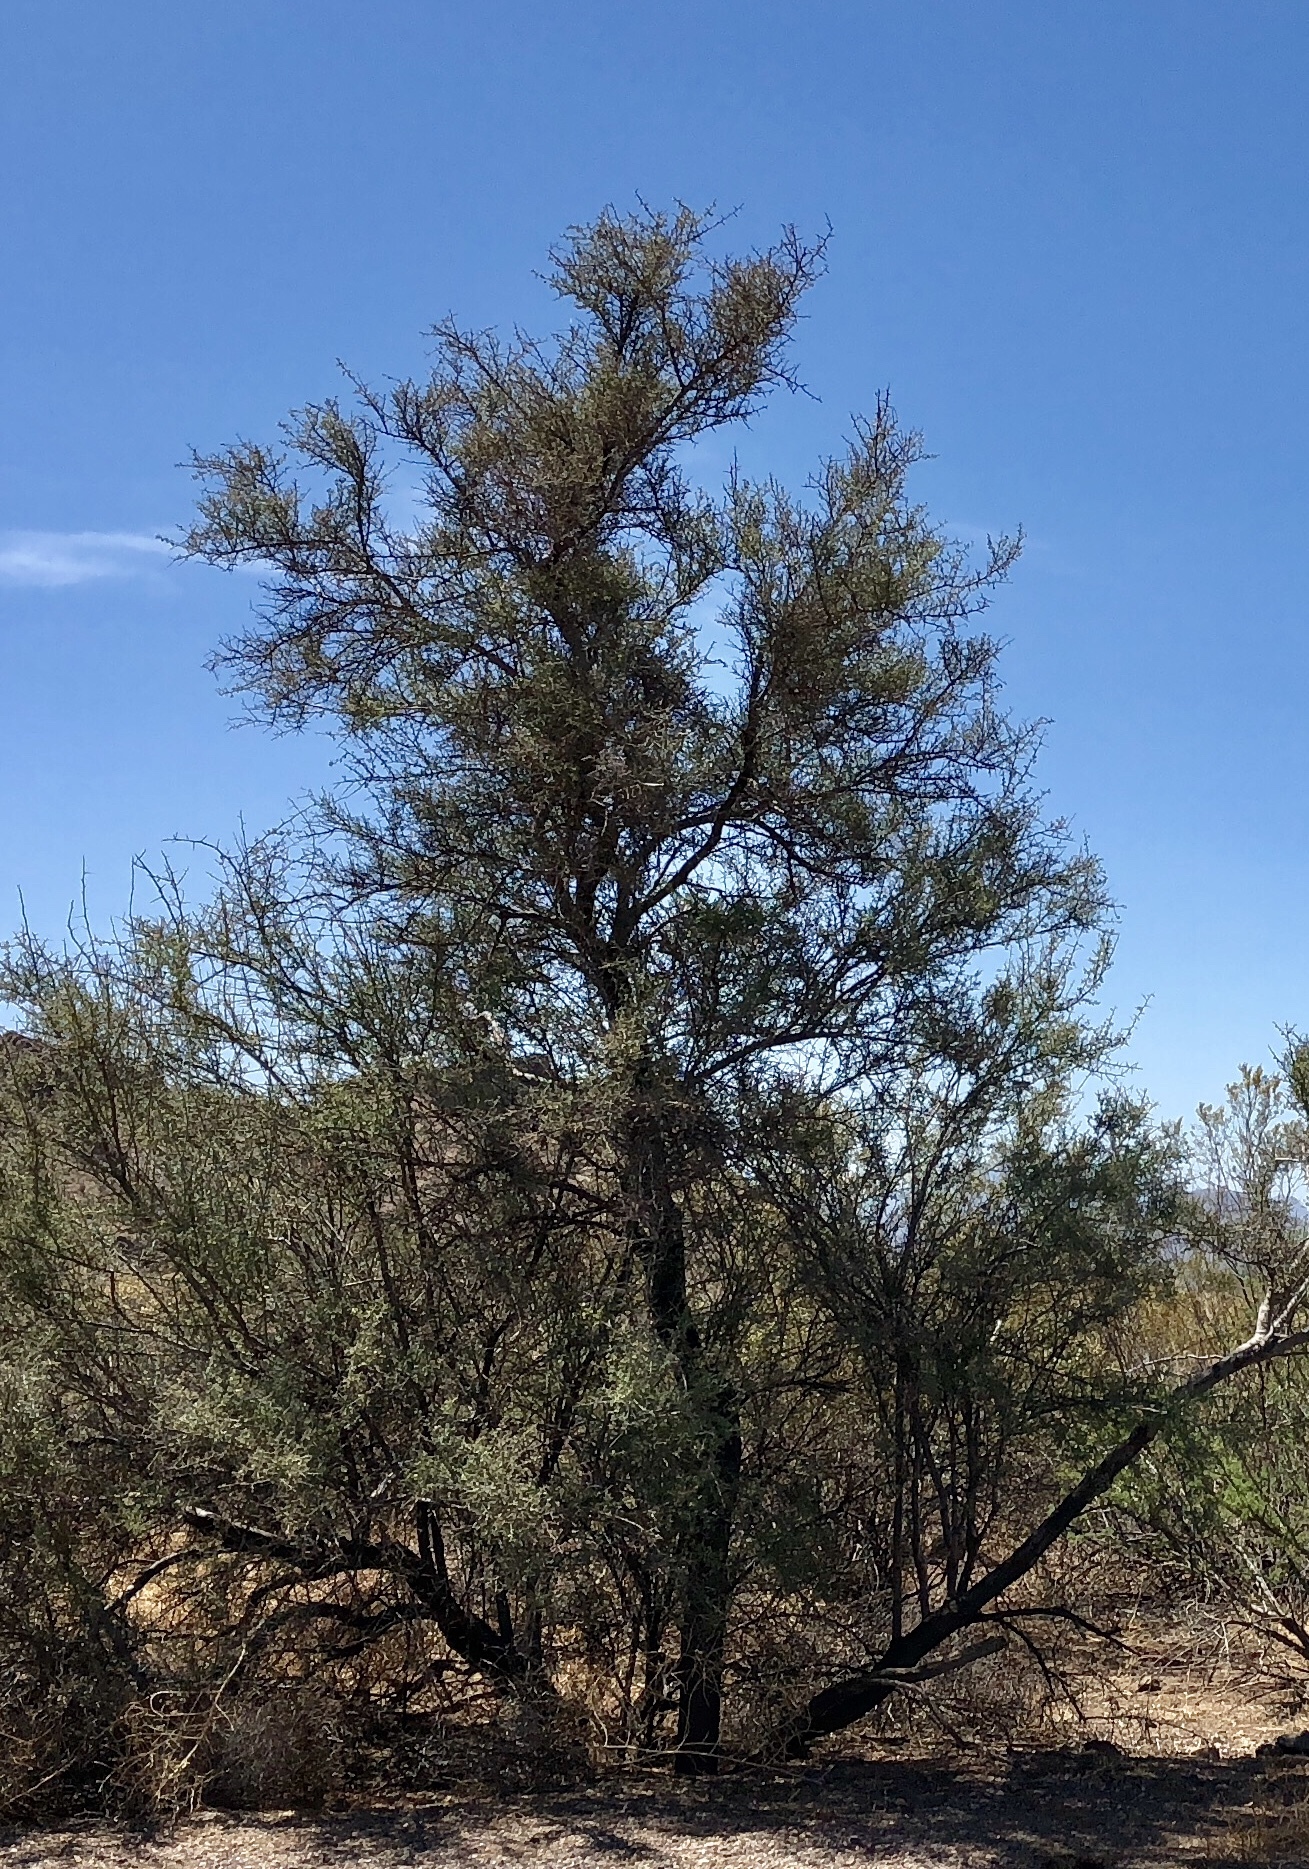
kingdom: Plantae
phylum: Tracheophyta
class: Magnoliopsida
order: Celastrales
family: Celastraceae
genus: Canotia
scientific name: Canotia holacantha
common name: Crucifixion thorns
